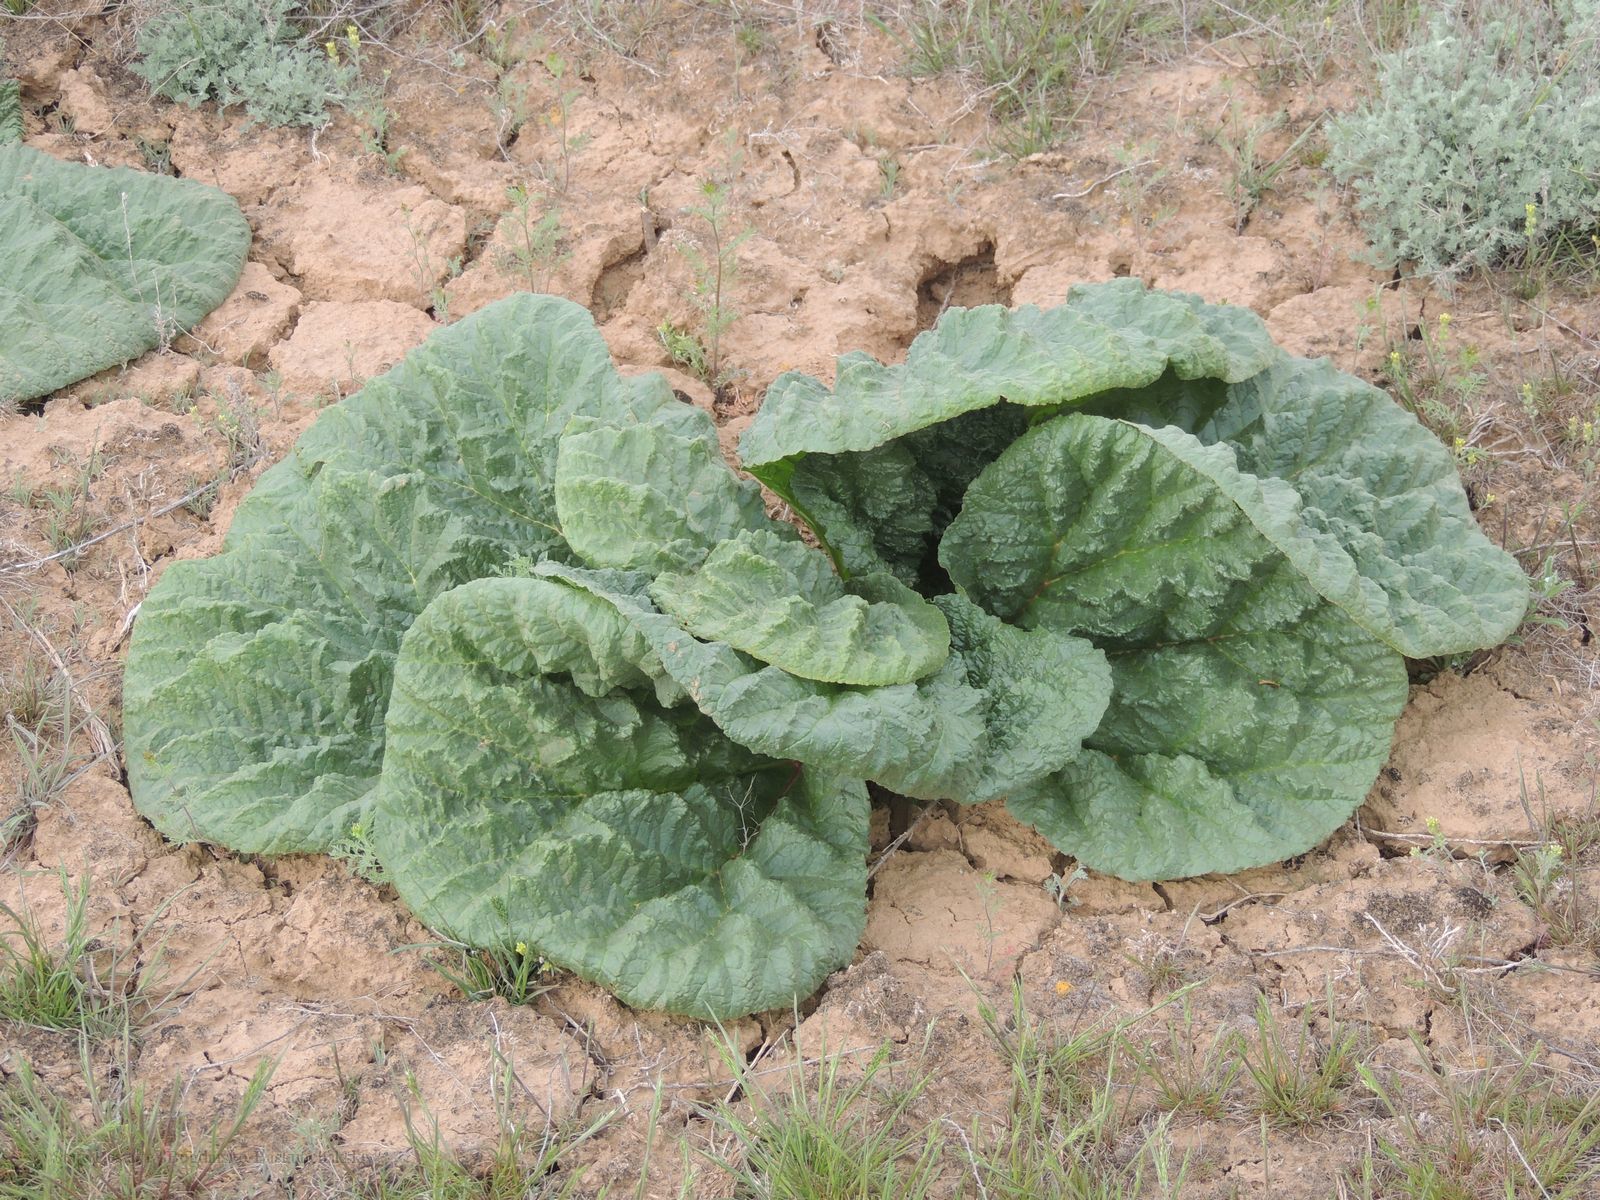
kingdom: Plantae
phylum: Tracheophyta
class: Magnoliopsida
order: Caryophyllales
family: Polygonaceae
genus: Rheum
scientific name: Rheum tataricum
